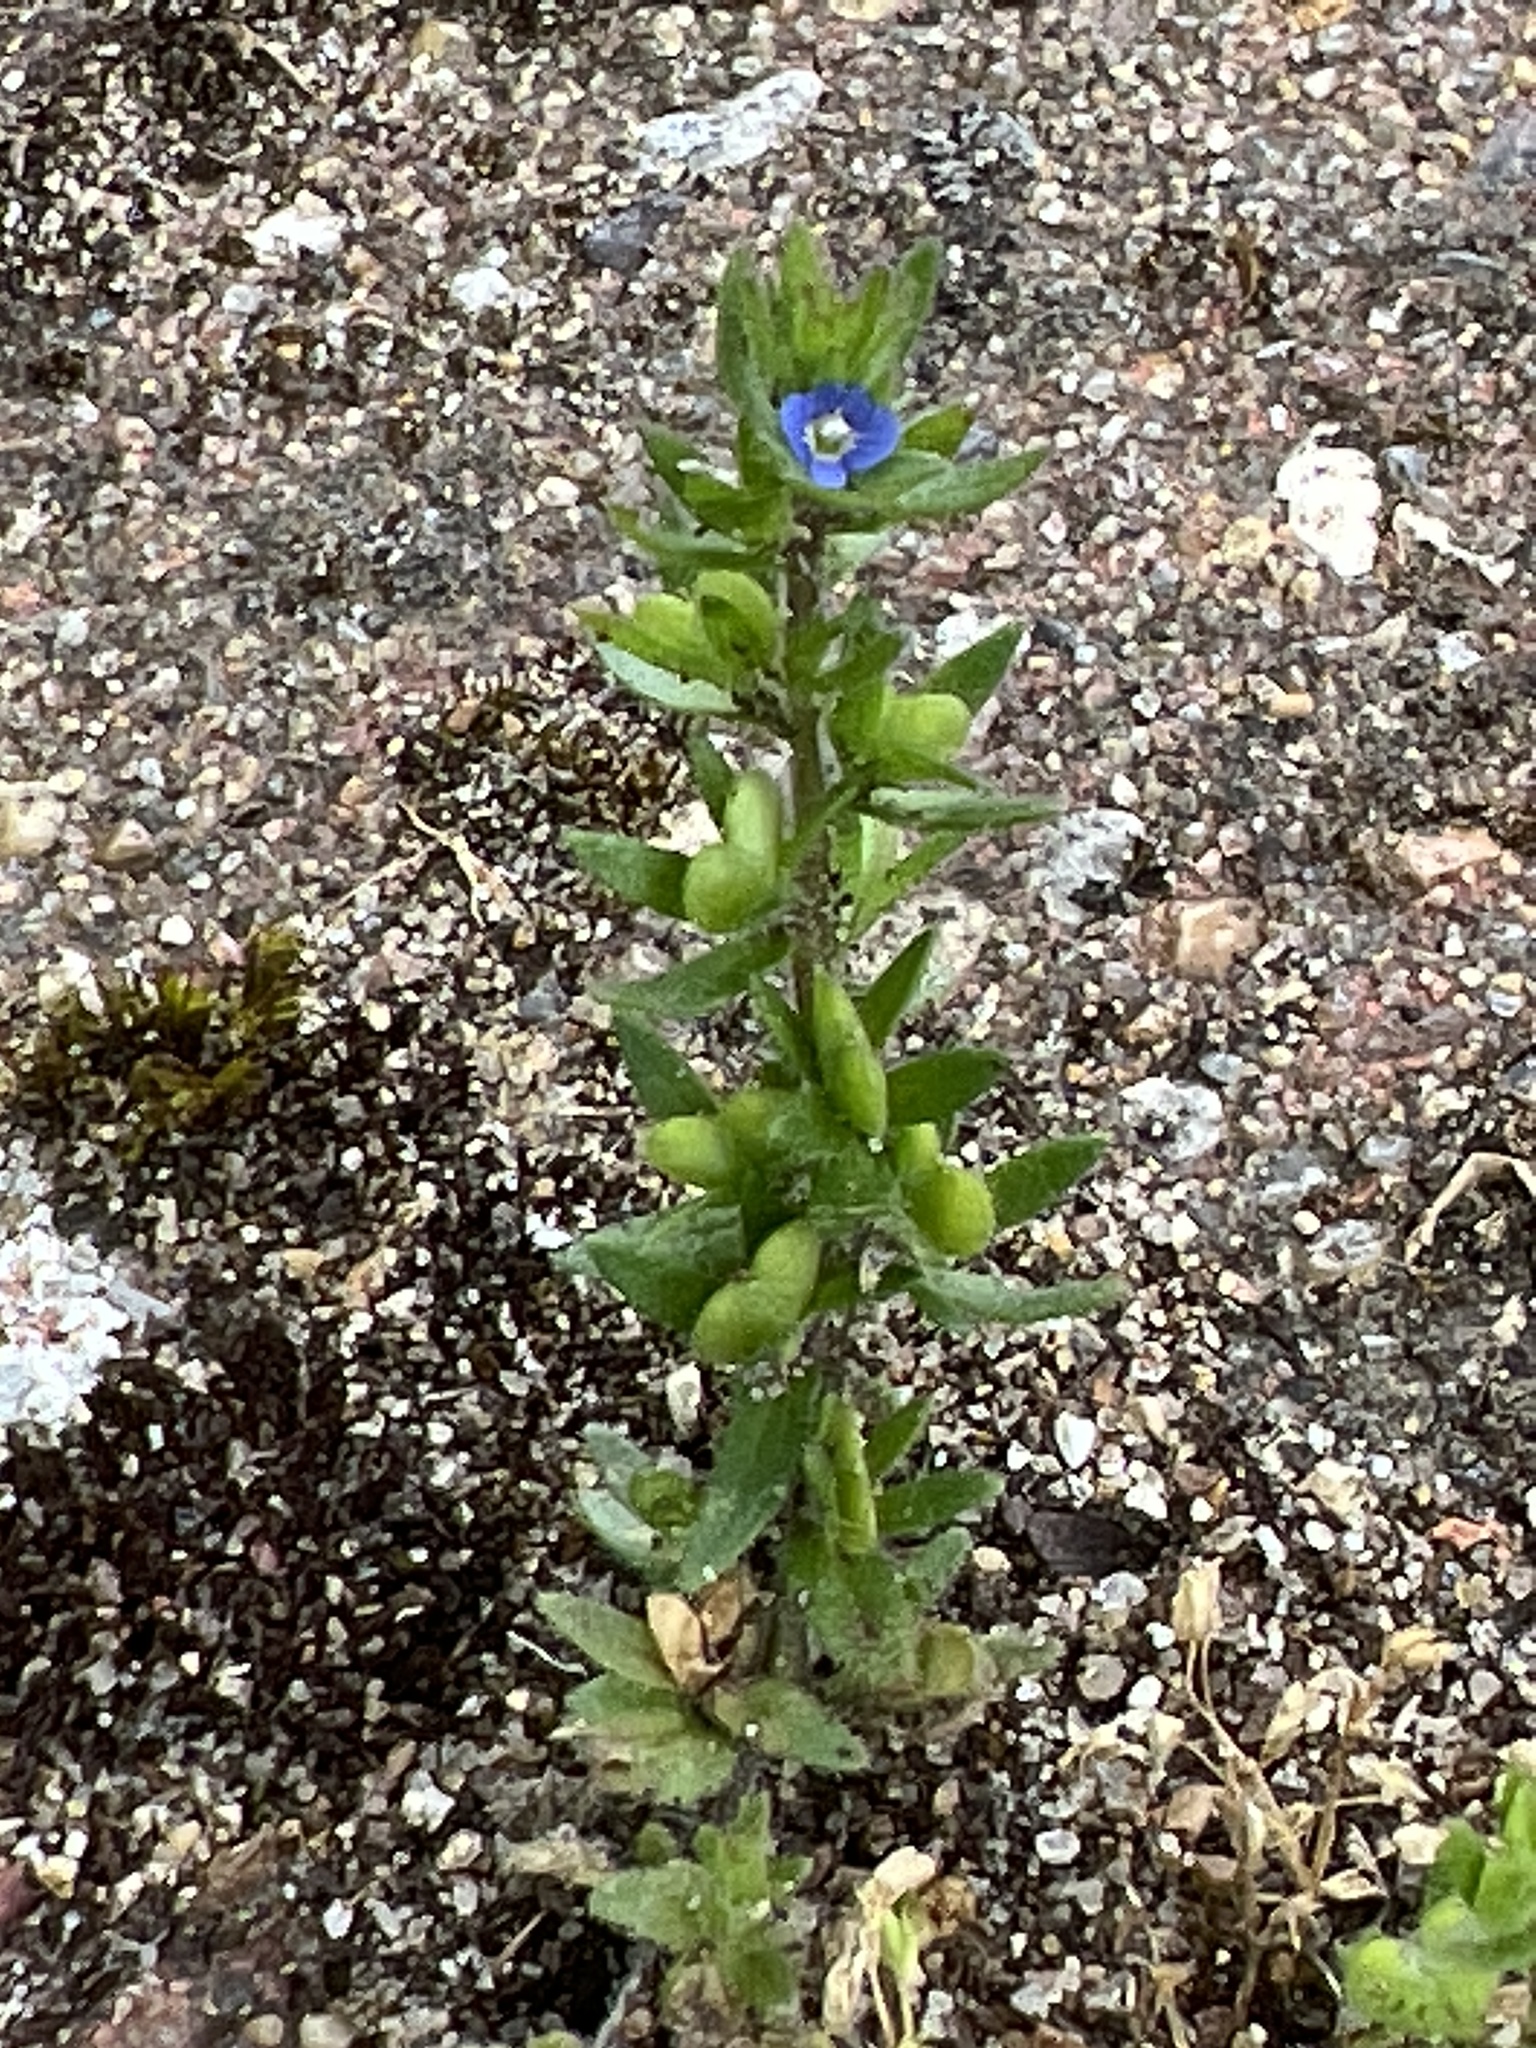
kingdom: Plantae
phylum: Tracheophyta
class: Magnoliopsida
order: Lamiales
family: Plantaginaceae
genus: Veronica
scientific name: Veronica arvensis
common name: Corn speedwell
